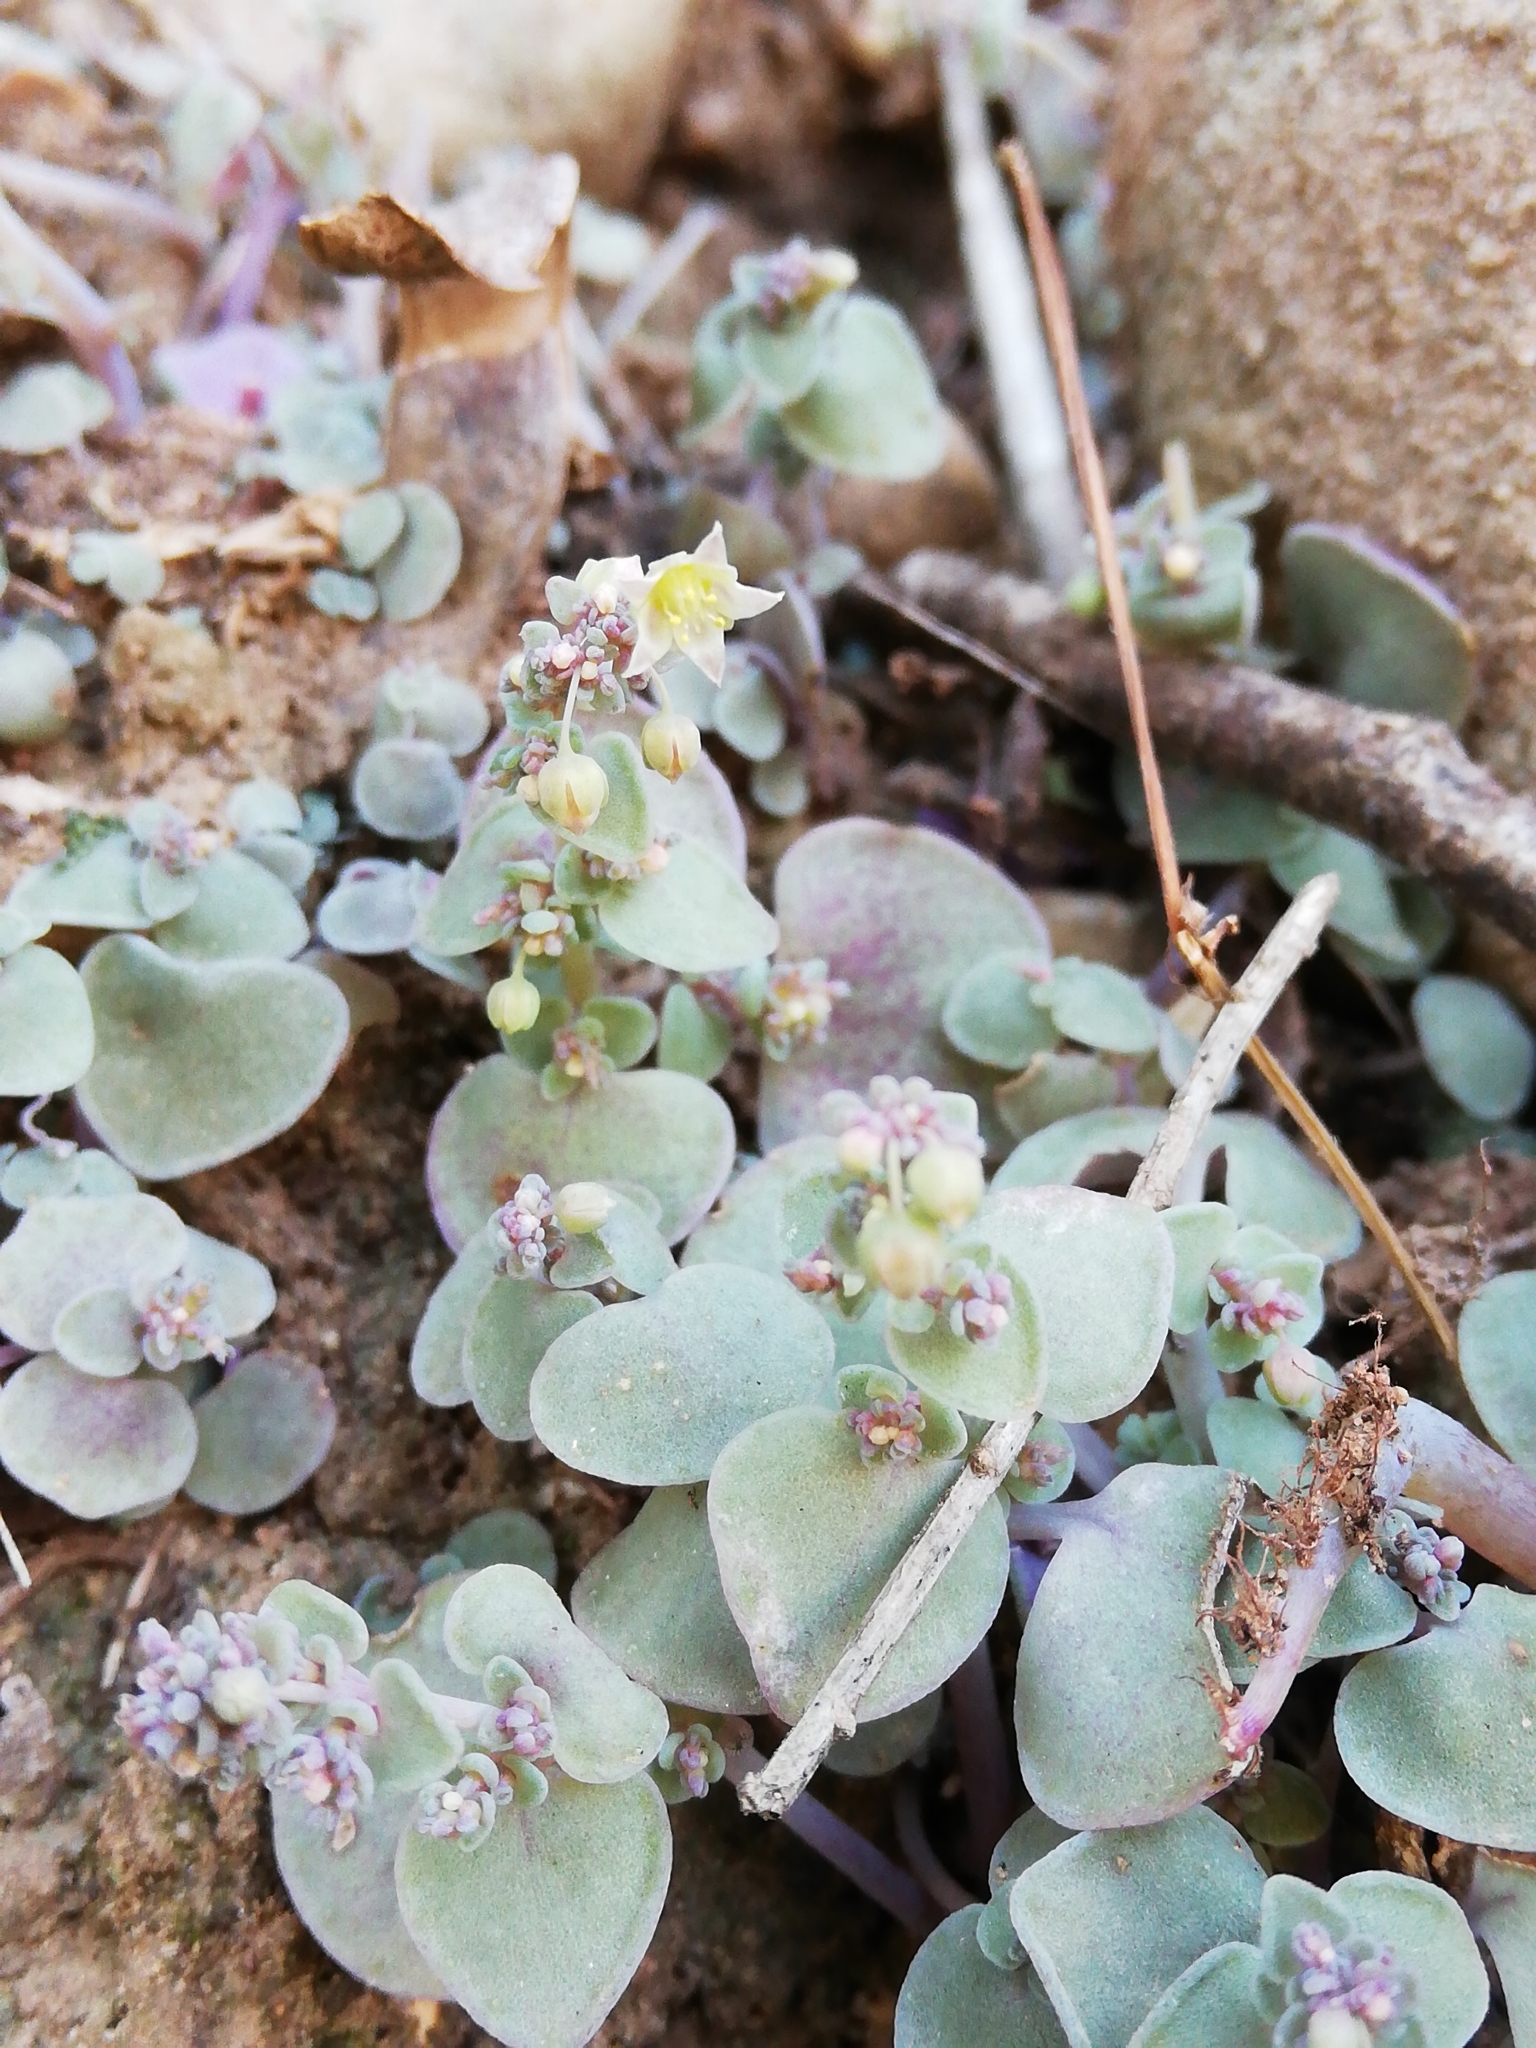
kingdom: Plantae
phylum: Tracheophyta
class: Magnoliopsida
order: Saxifragales
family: Crassulaceae
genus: Crassula
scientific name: Crassula nemorosa
